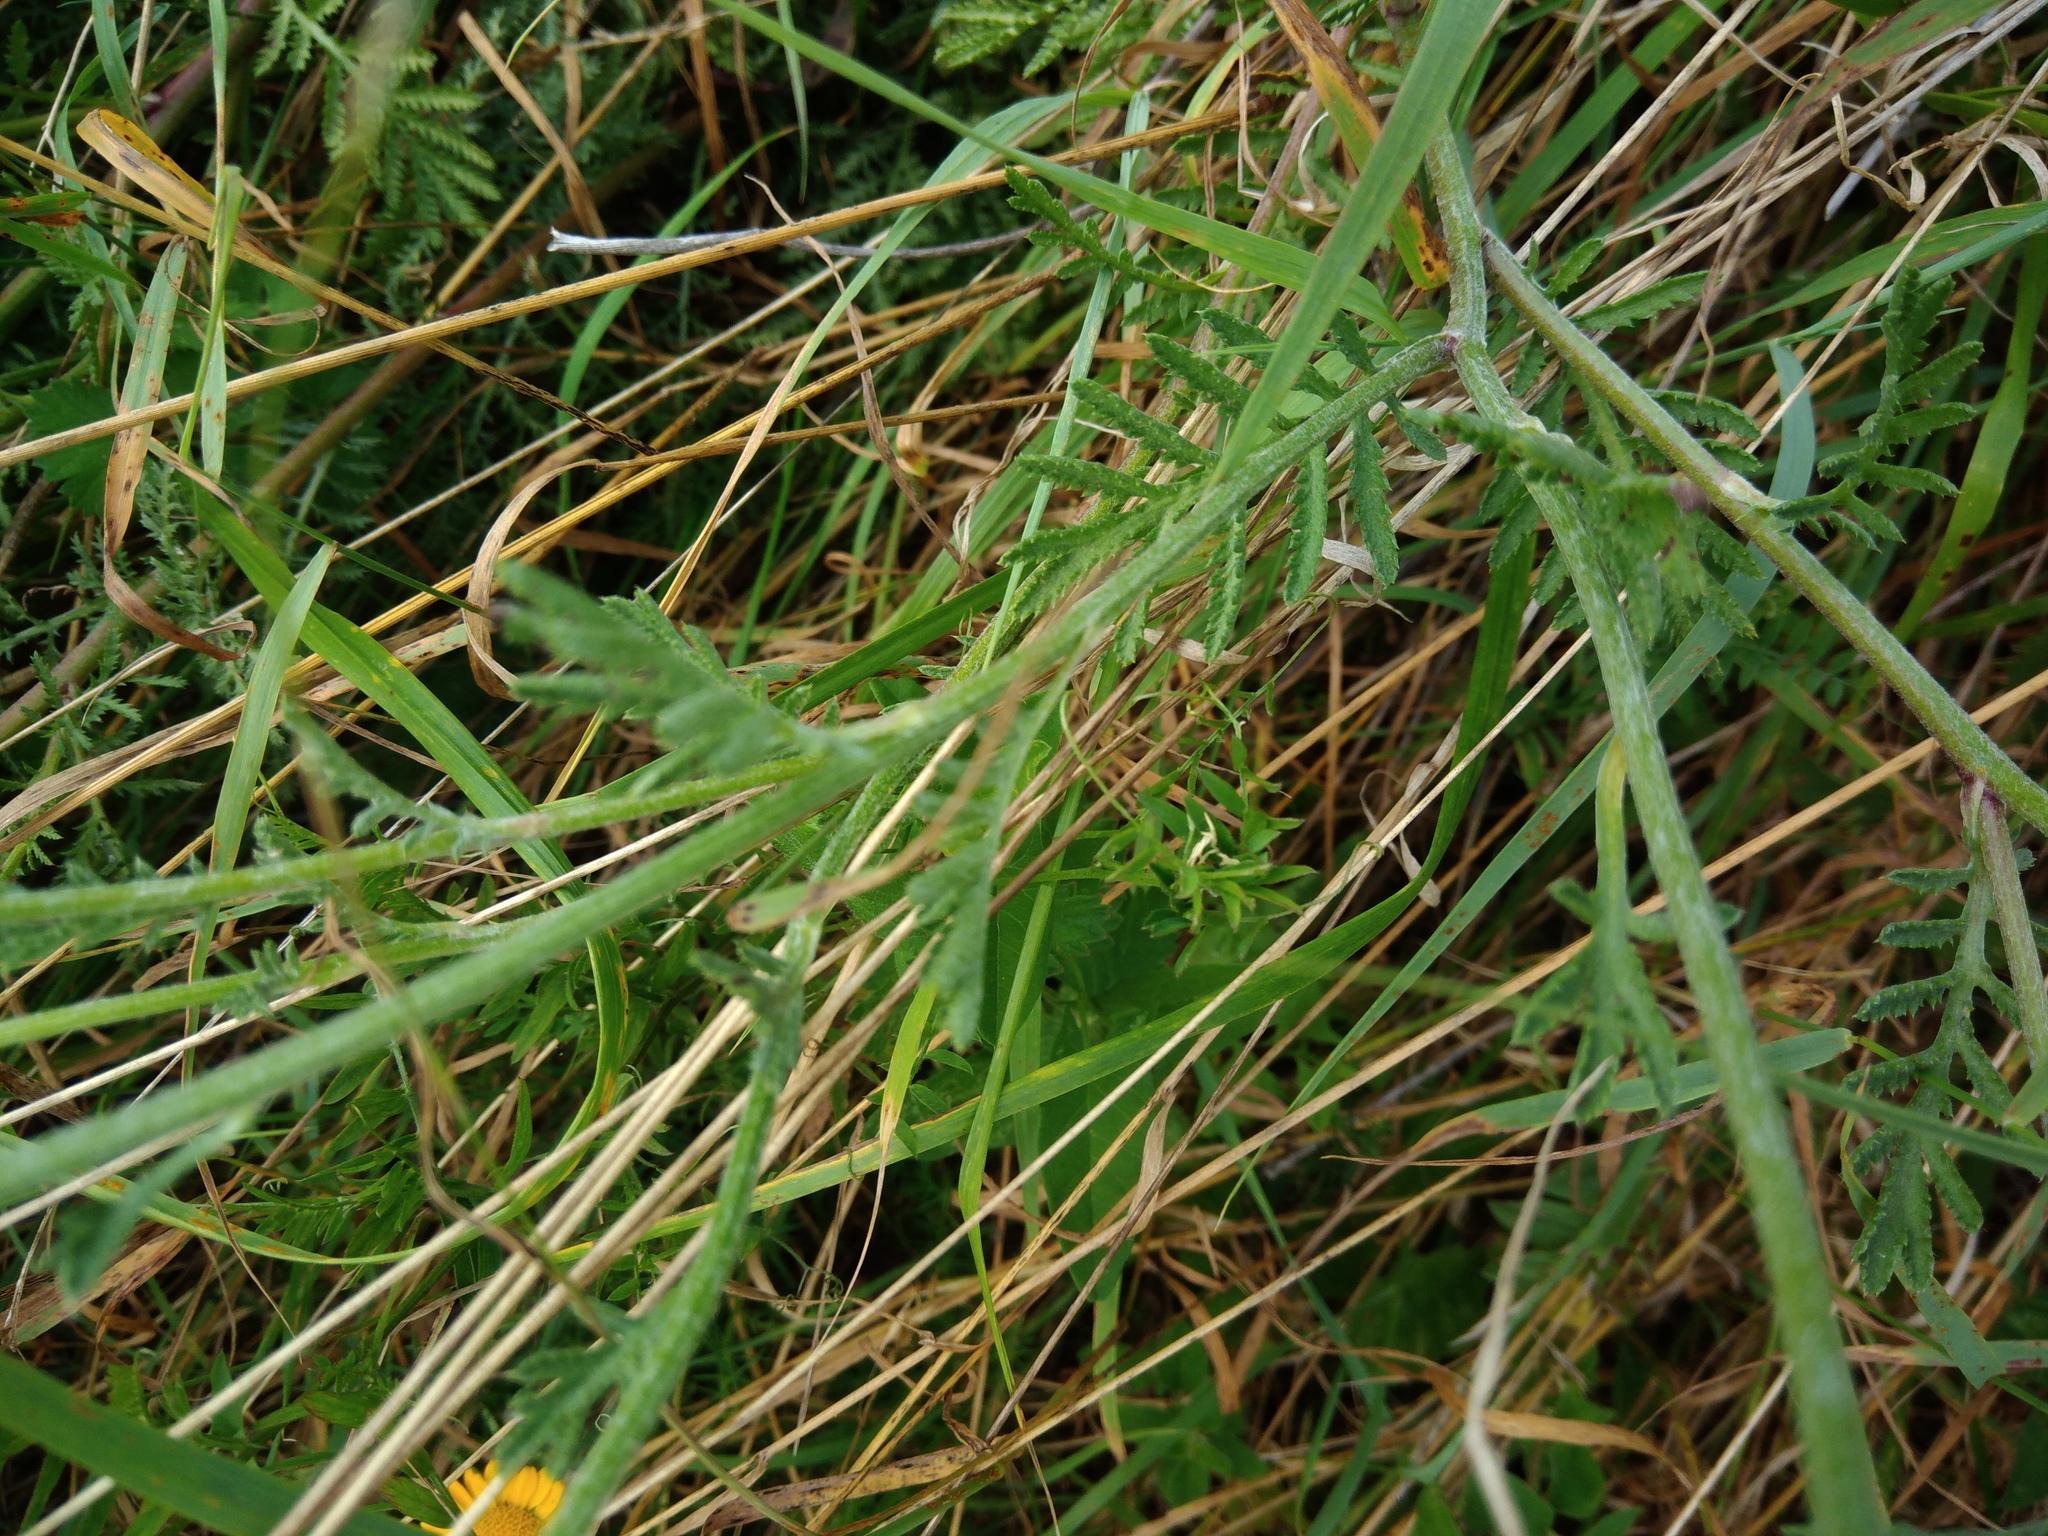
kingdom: Plantae
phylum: Tracheophyta
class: Magnoliopsida
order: Asterales
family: Asteraceae
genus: Cota
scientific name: Cota tinctoria
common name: Golden chamomile
